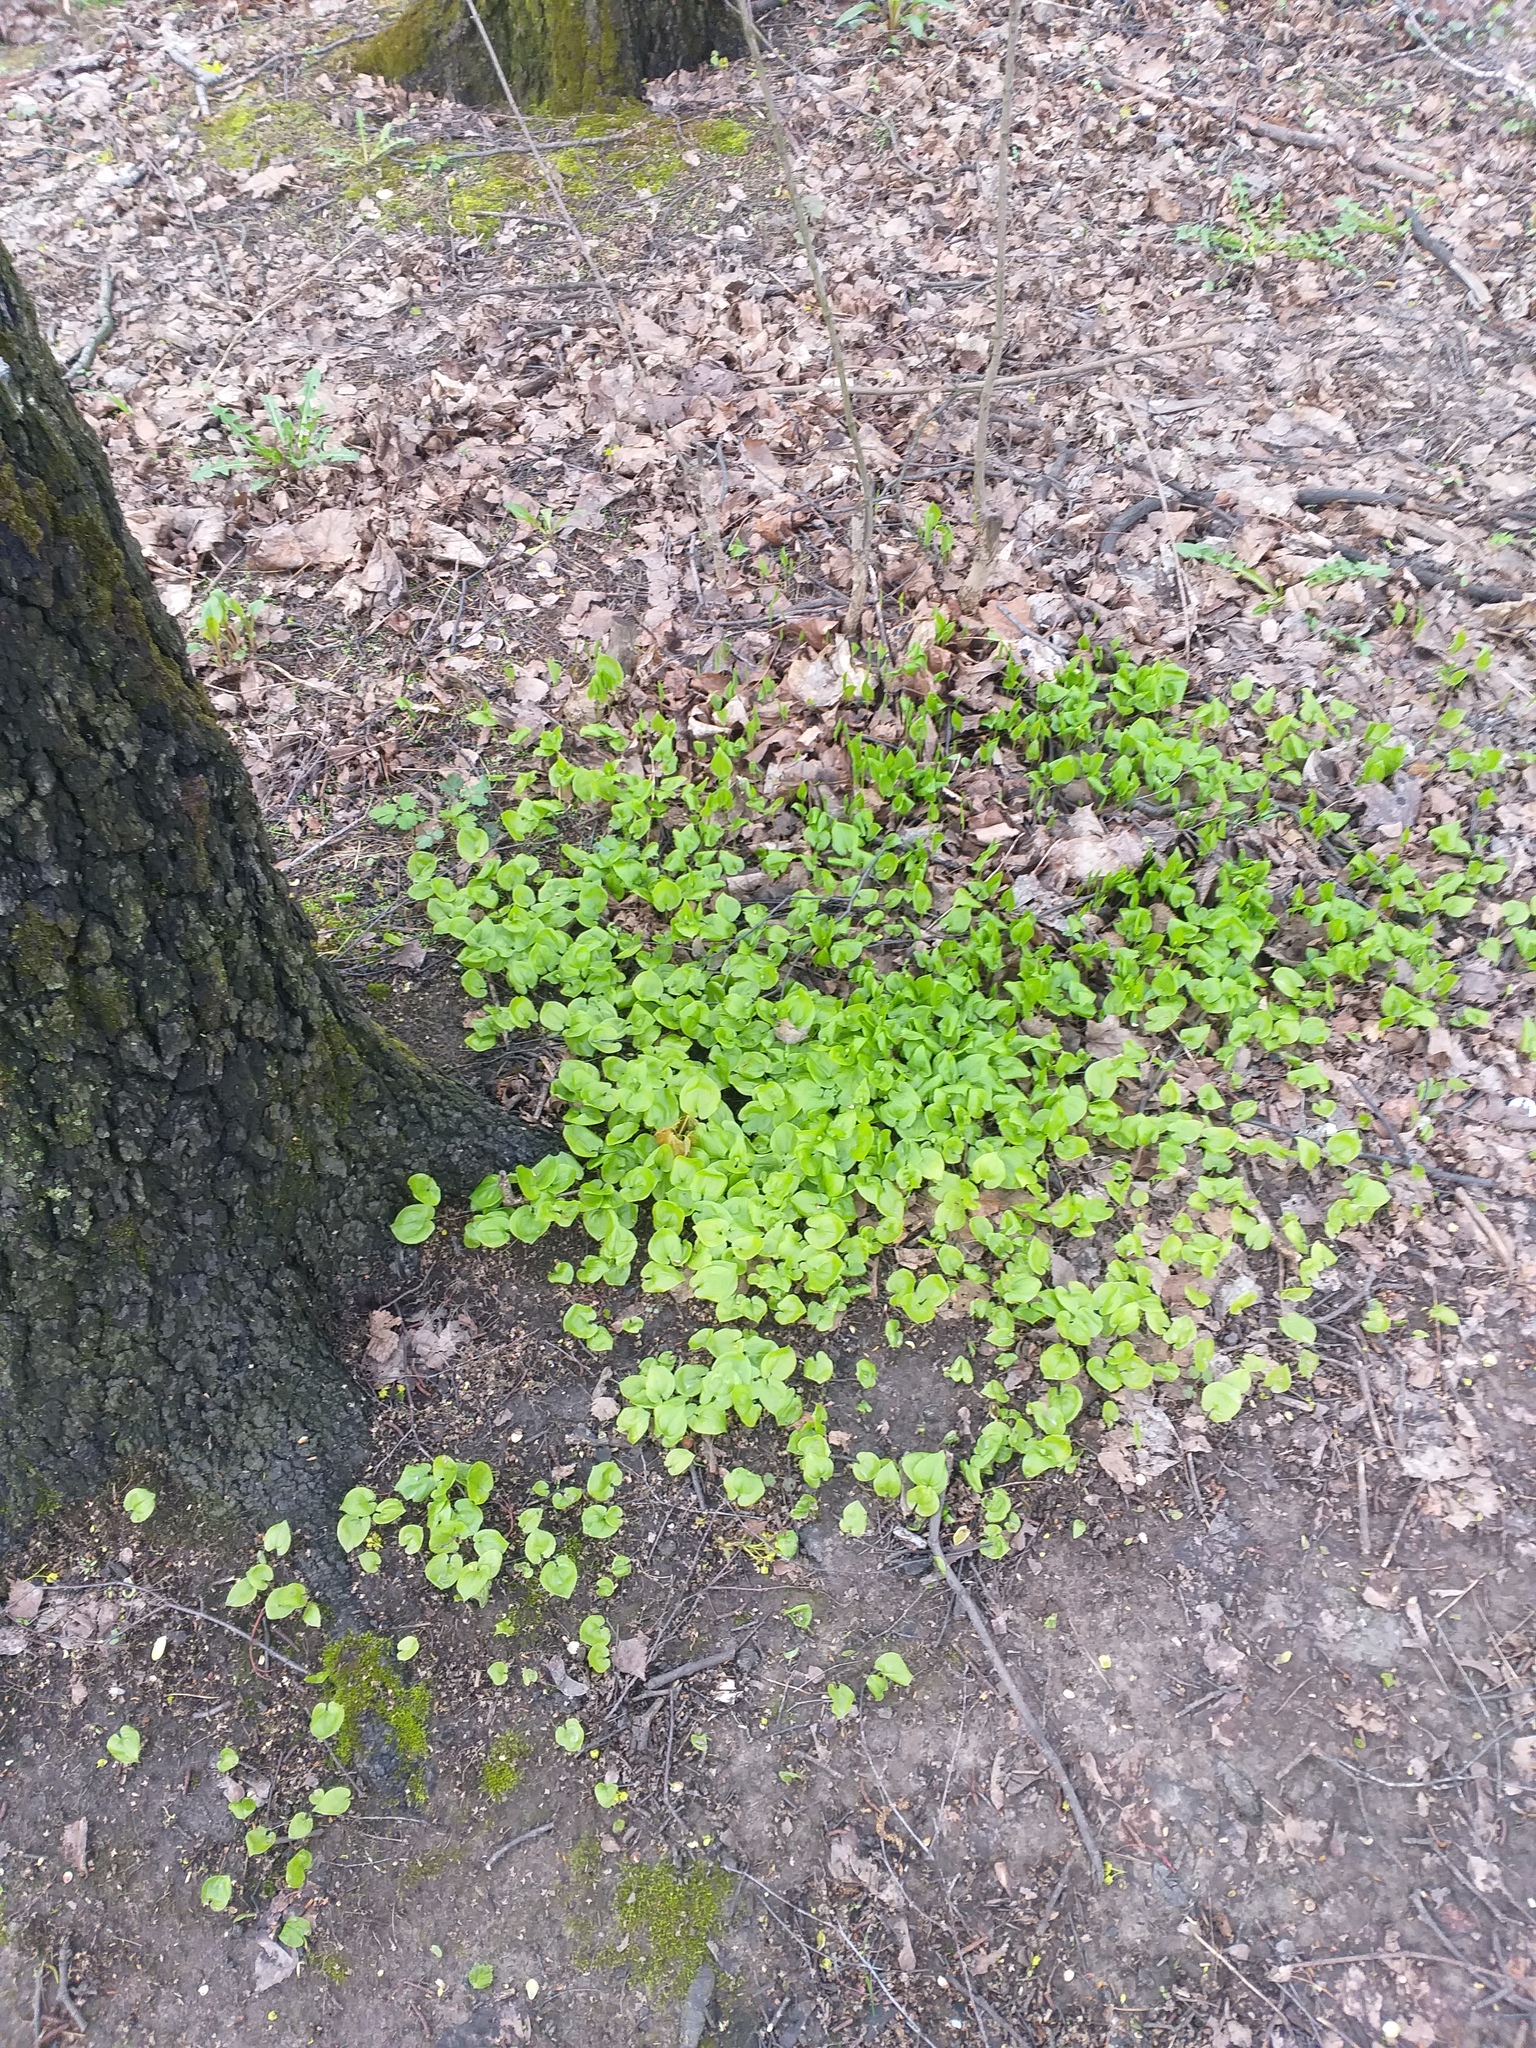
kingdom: Plantae
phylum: Tracheophyta
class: Liliopsida
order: Asparagales
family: Asparagaceae
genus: Maianthemum
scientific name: Maianthemum bifolium
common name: May lily
